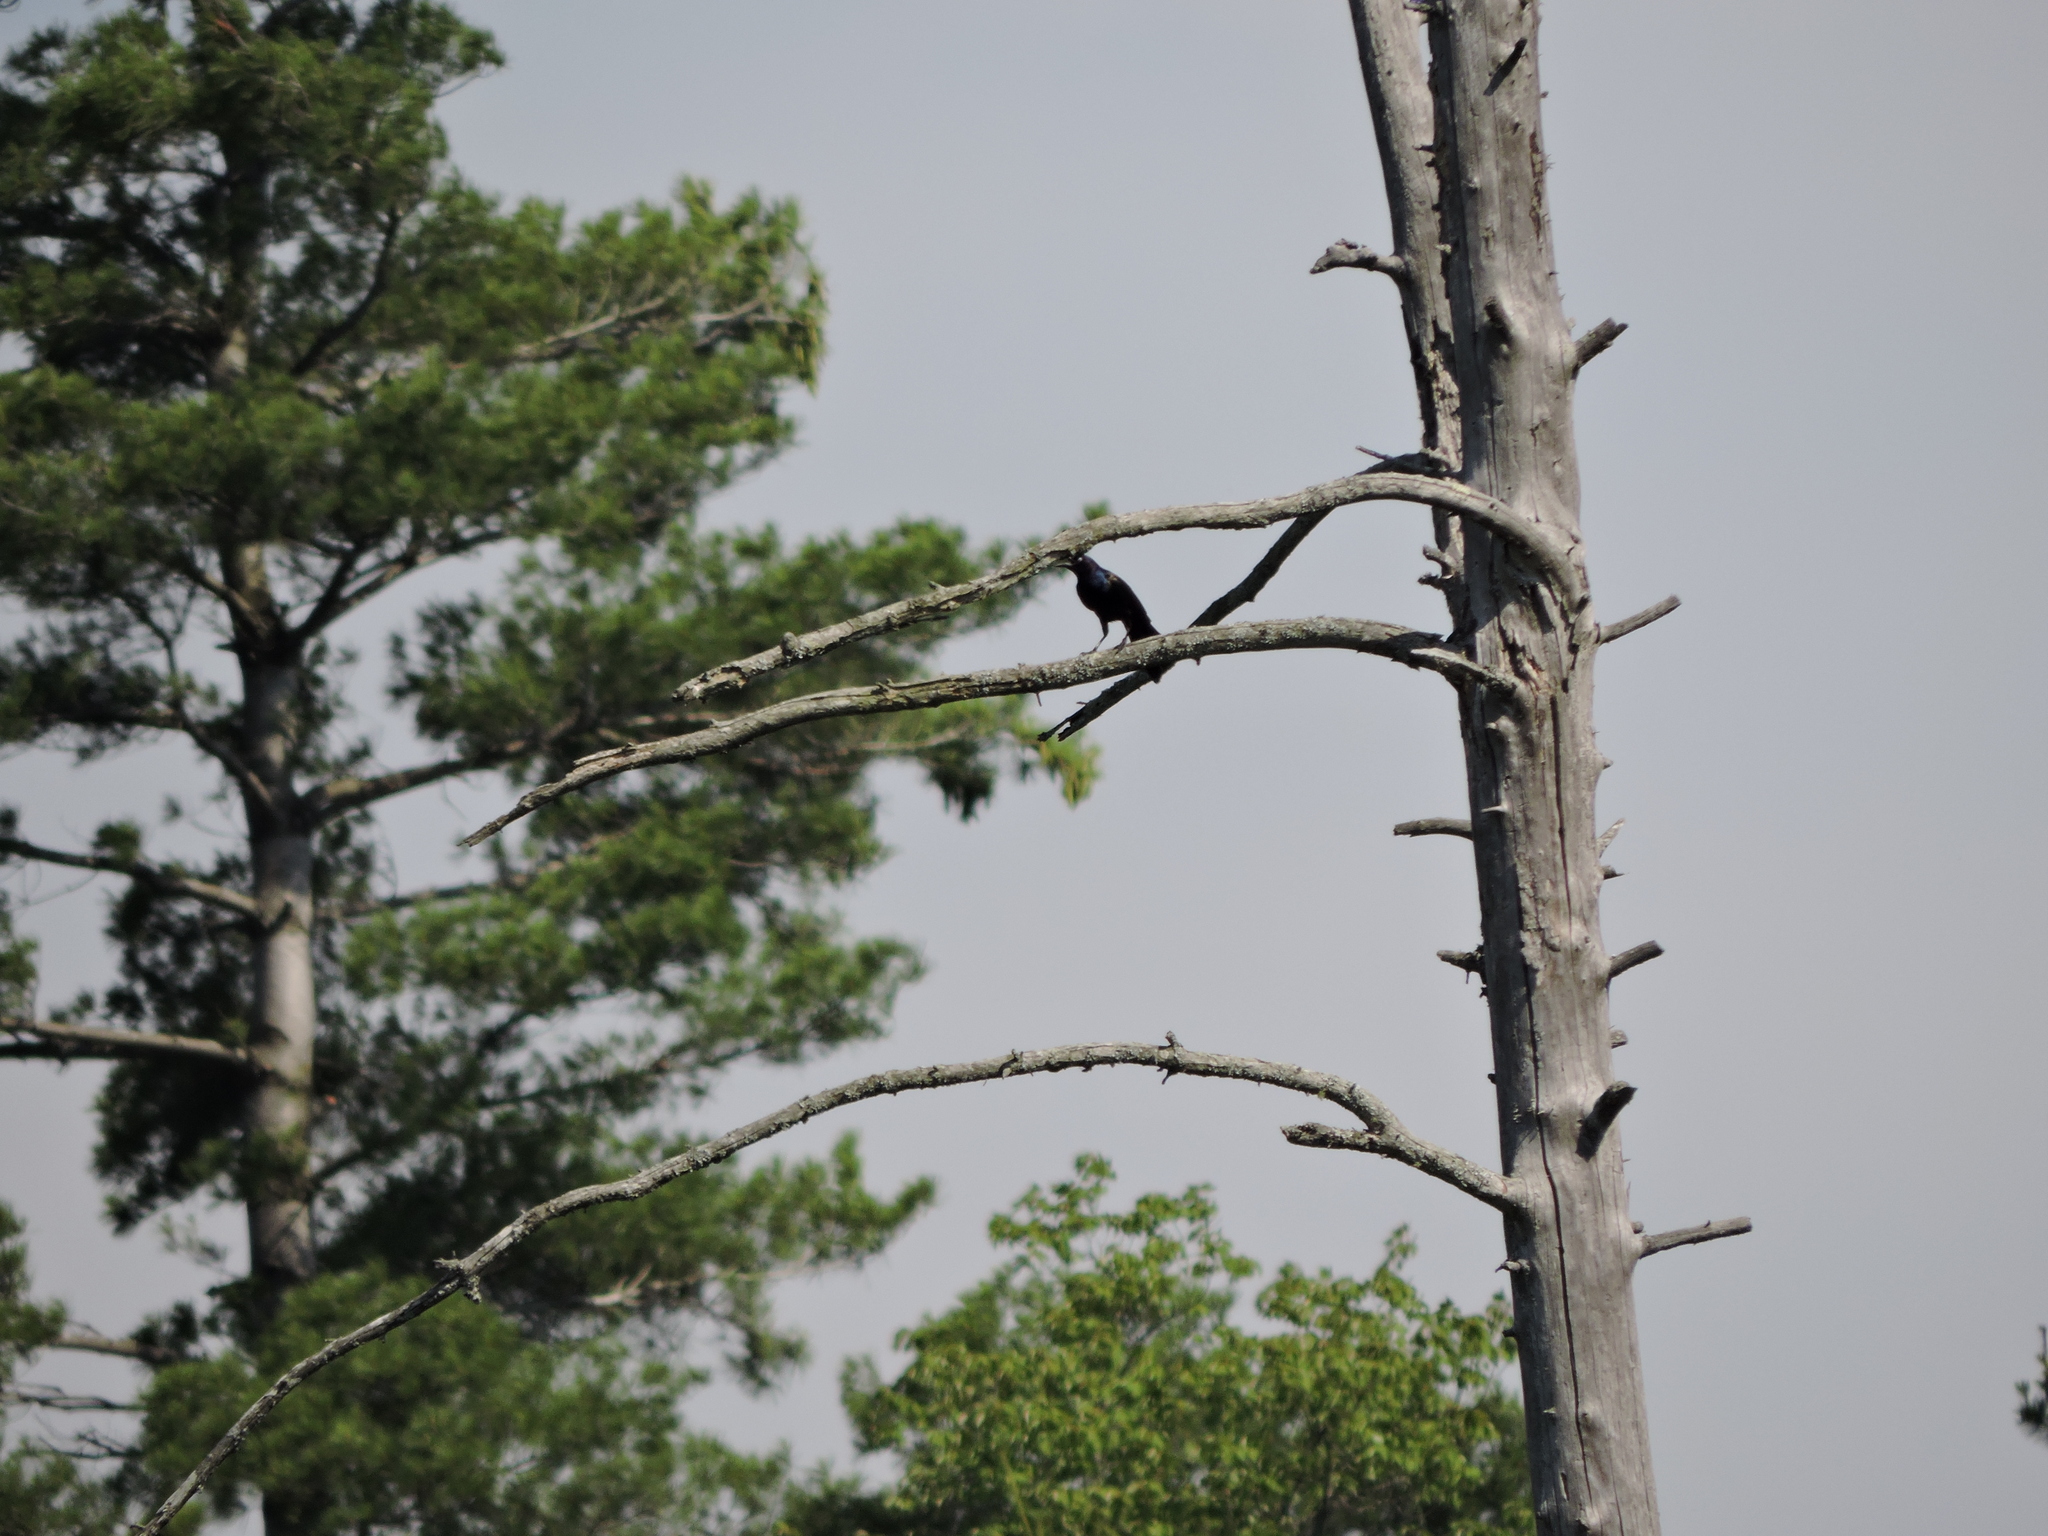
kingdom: Animalia
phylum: Chordata
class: Aves
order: Passeriformes
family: Icteridae
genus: Quiscalus
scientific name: Quiscalus quiscula
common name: Common grackle
